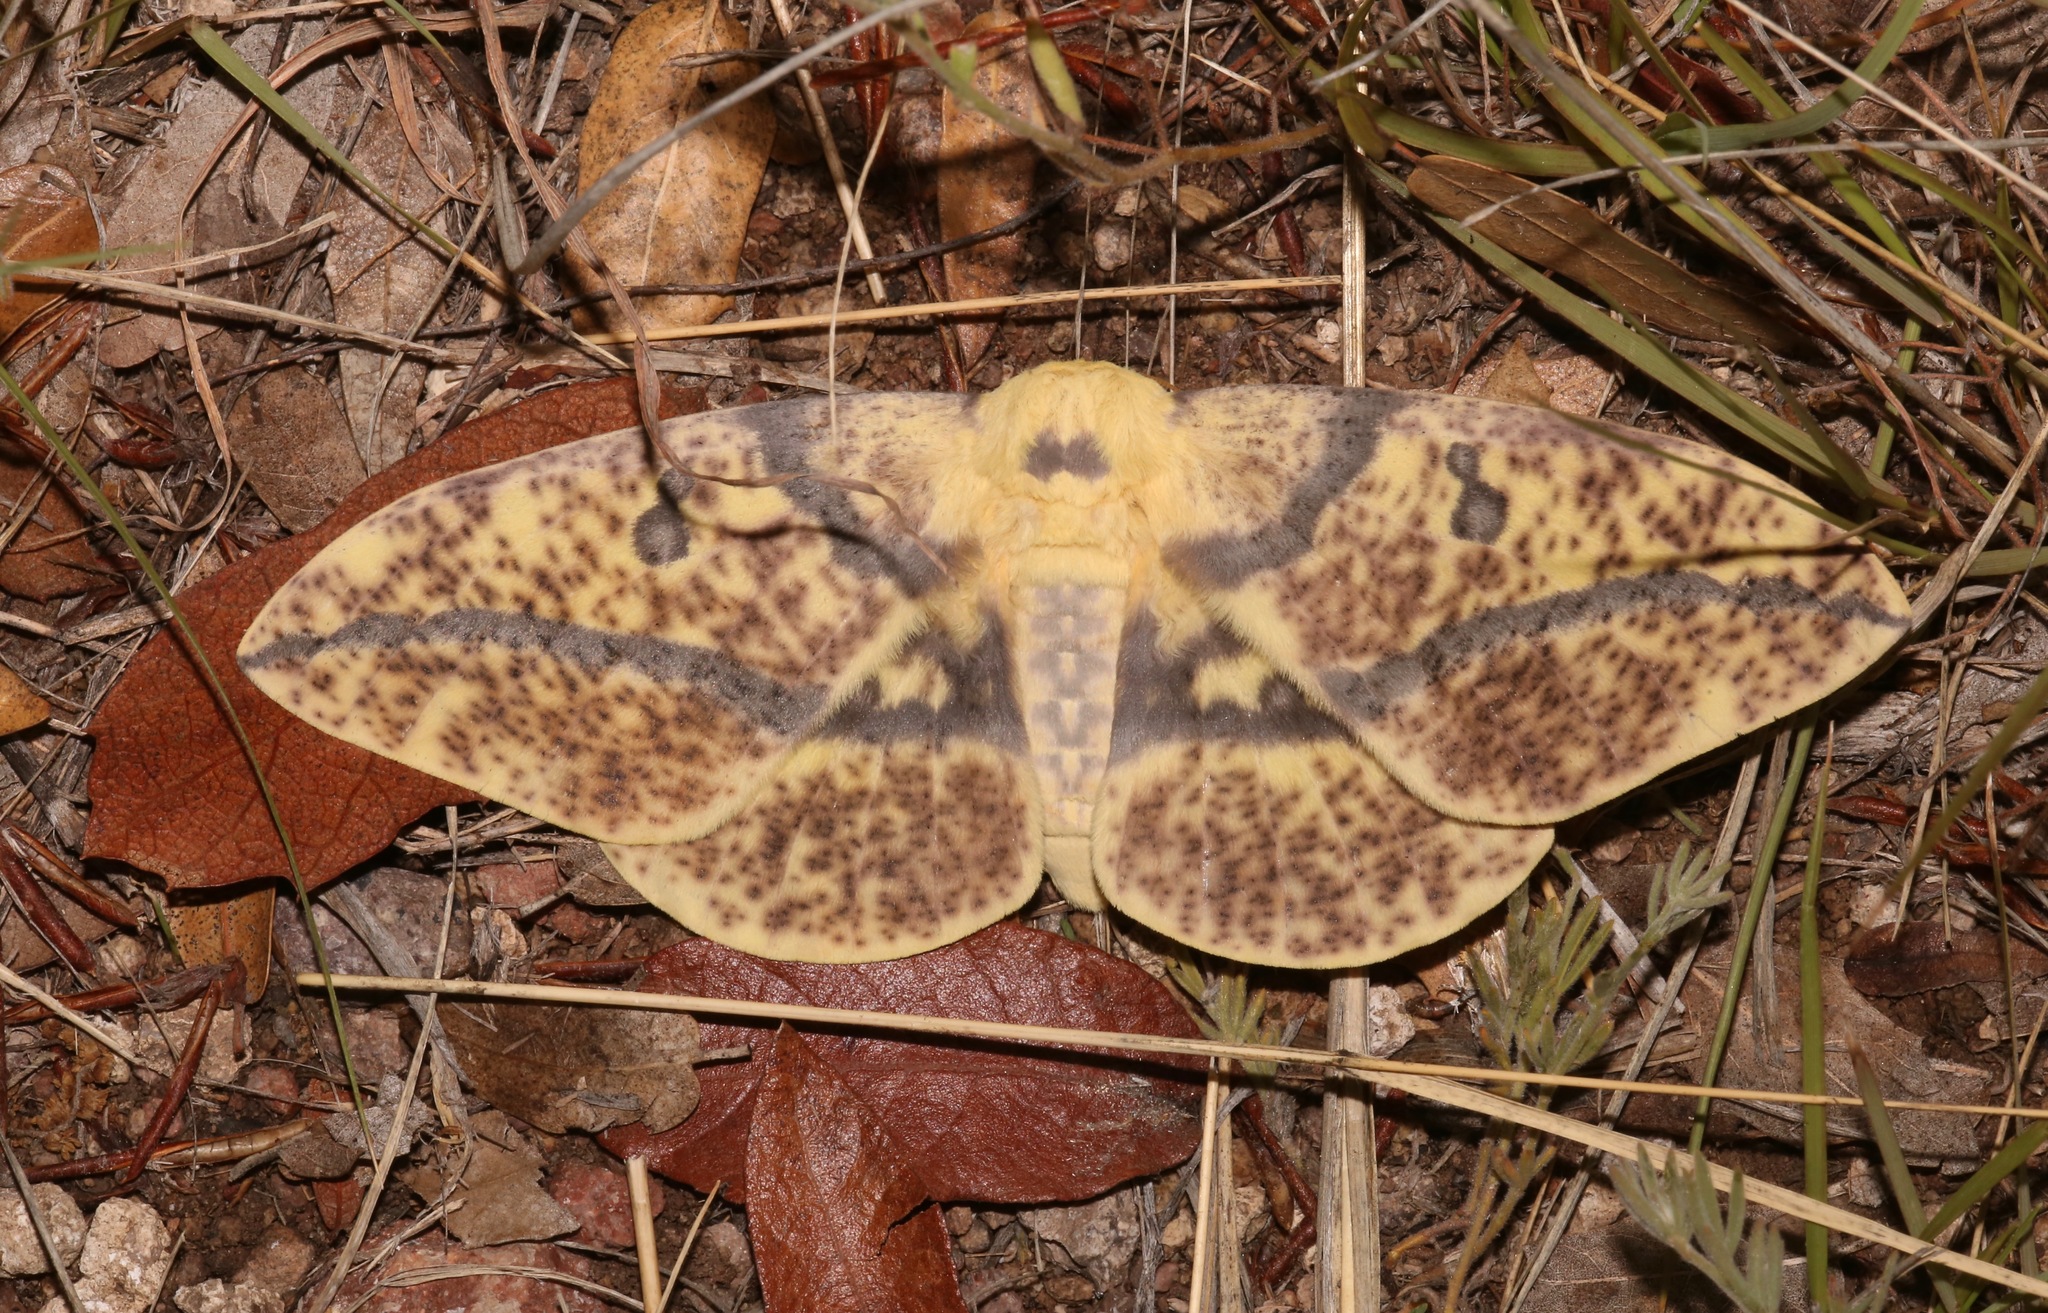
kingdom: Animalia
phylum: Arthropoda
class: Insecta
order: Lepidoptera
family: Saturniidae
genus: Eacles
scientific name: Eacles oslari
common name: Oslar's imperial moth
